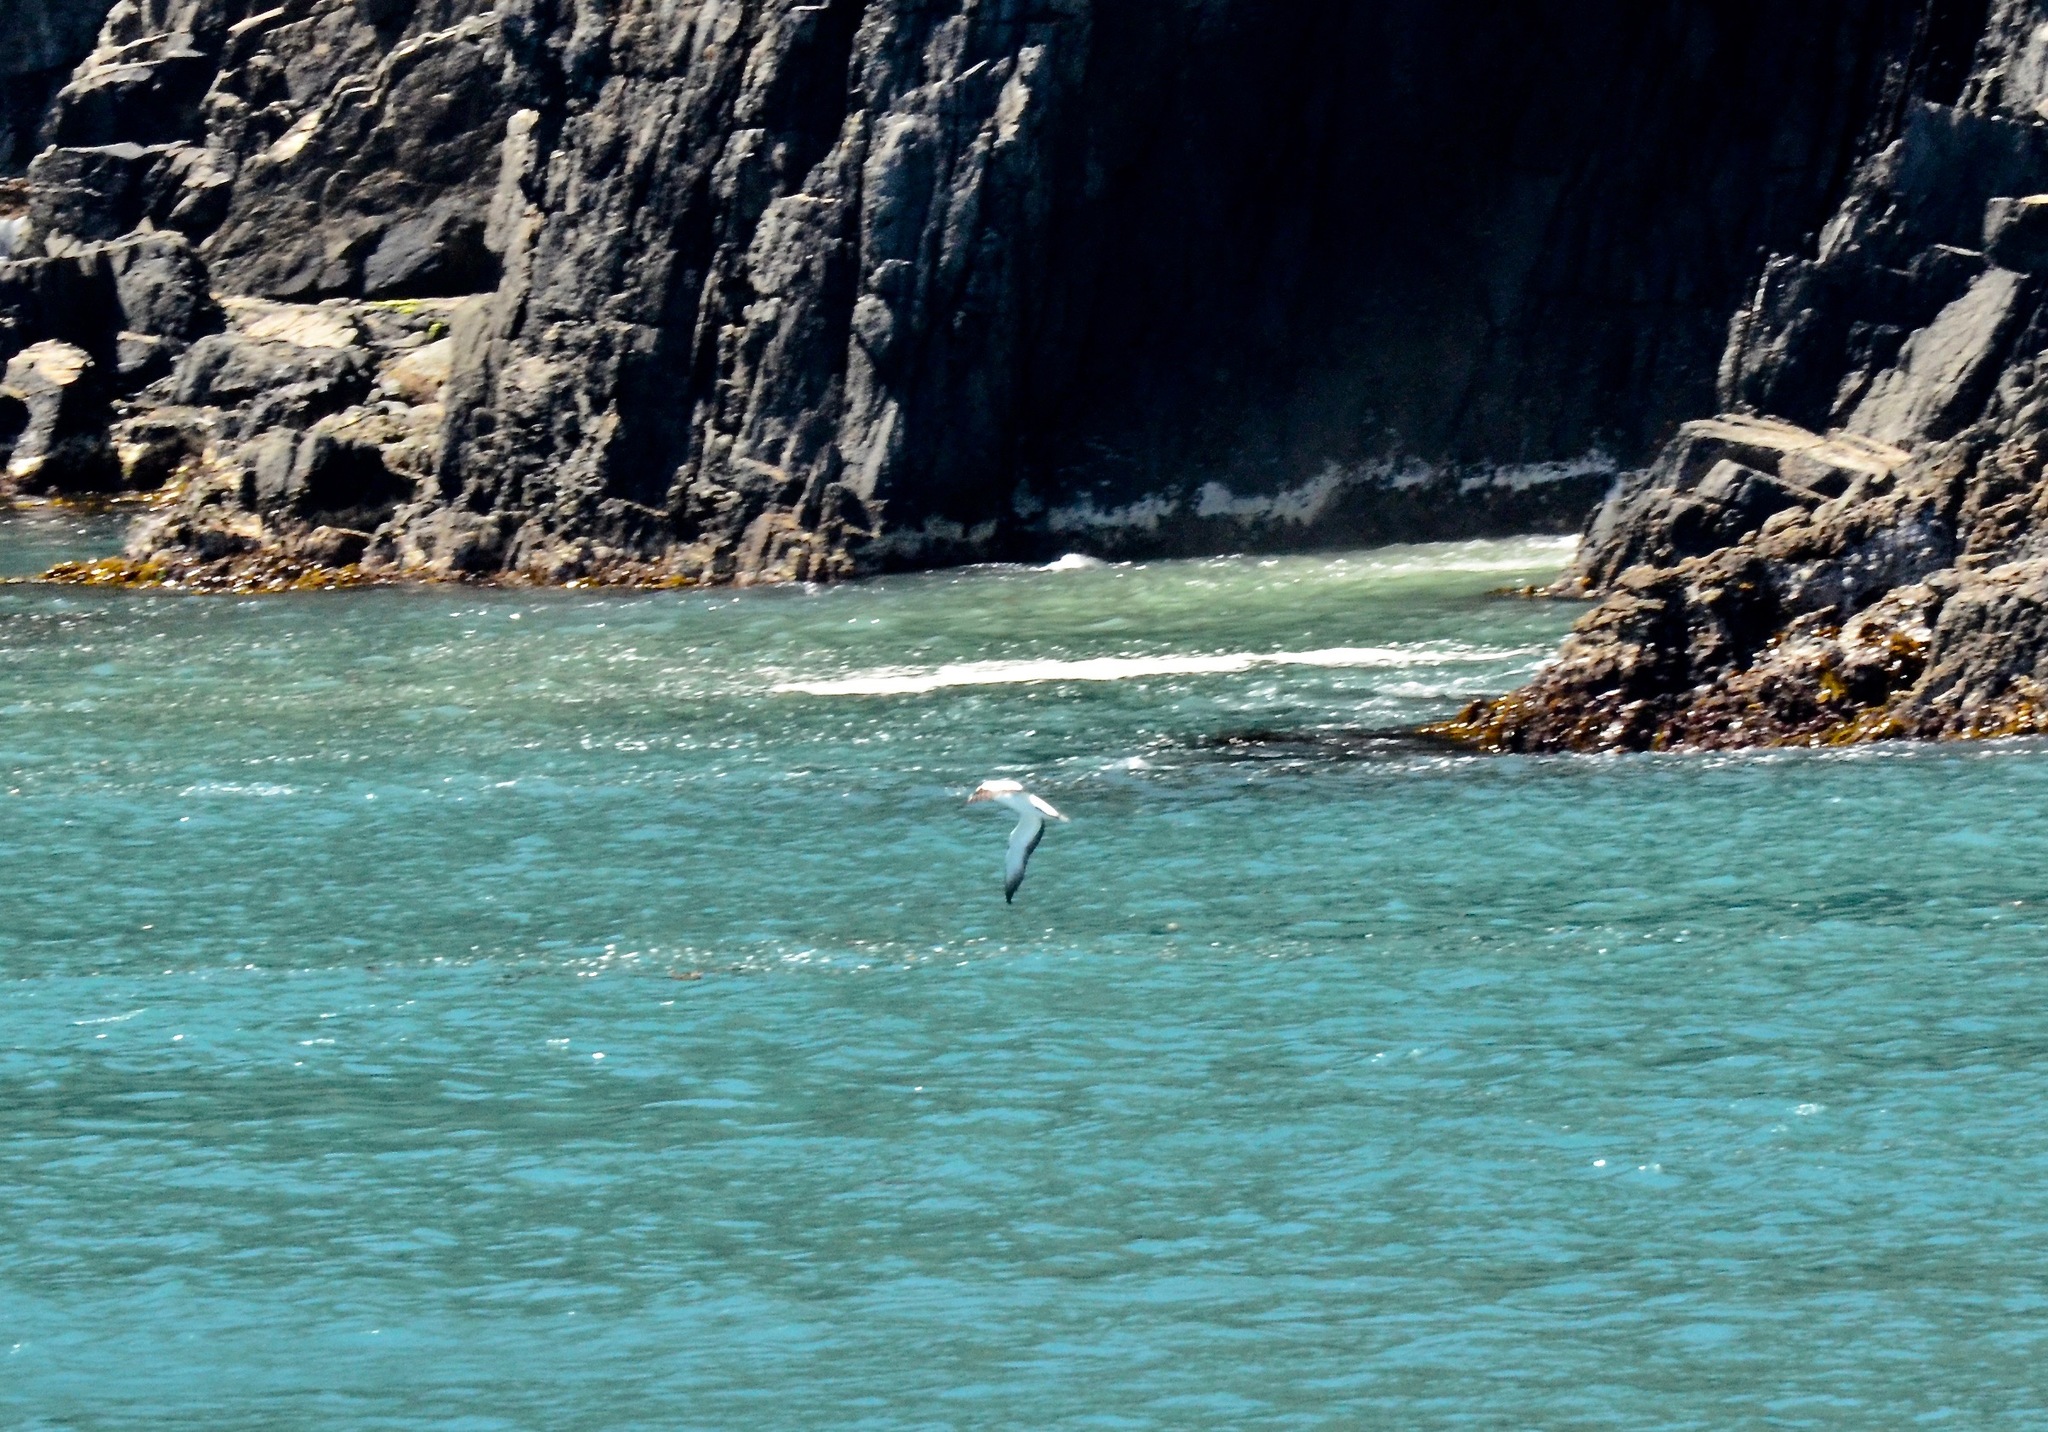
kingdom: Animalia
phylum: Chordata
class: Aves
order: Suliformes
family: Sulidae
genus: Morus
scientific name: Morus serrator
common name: Australasian gannet
